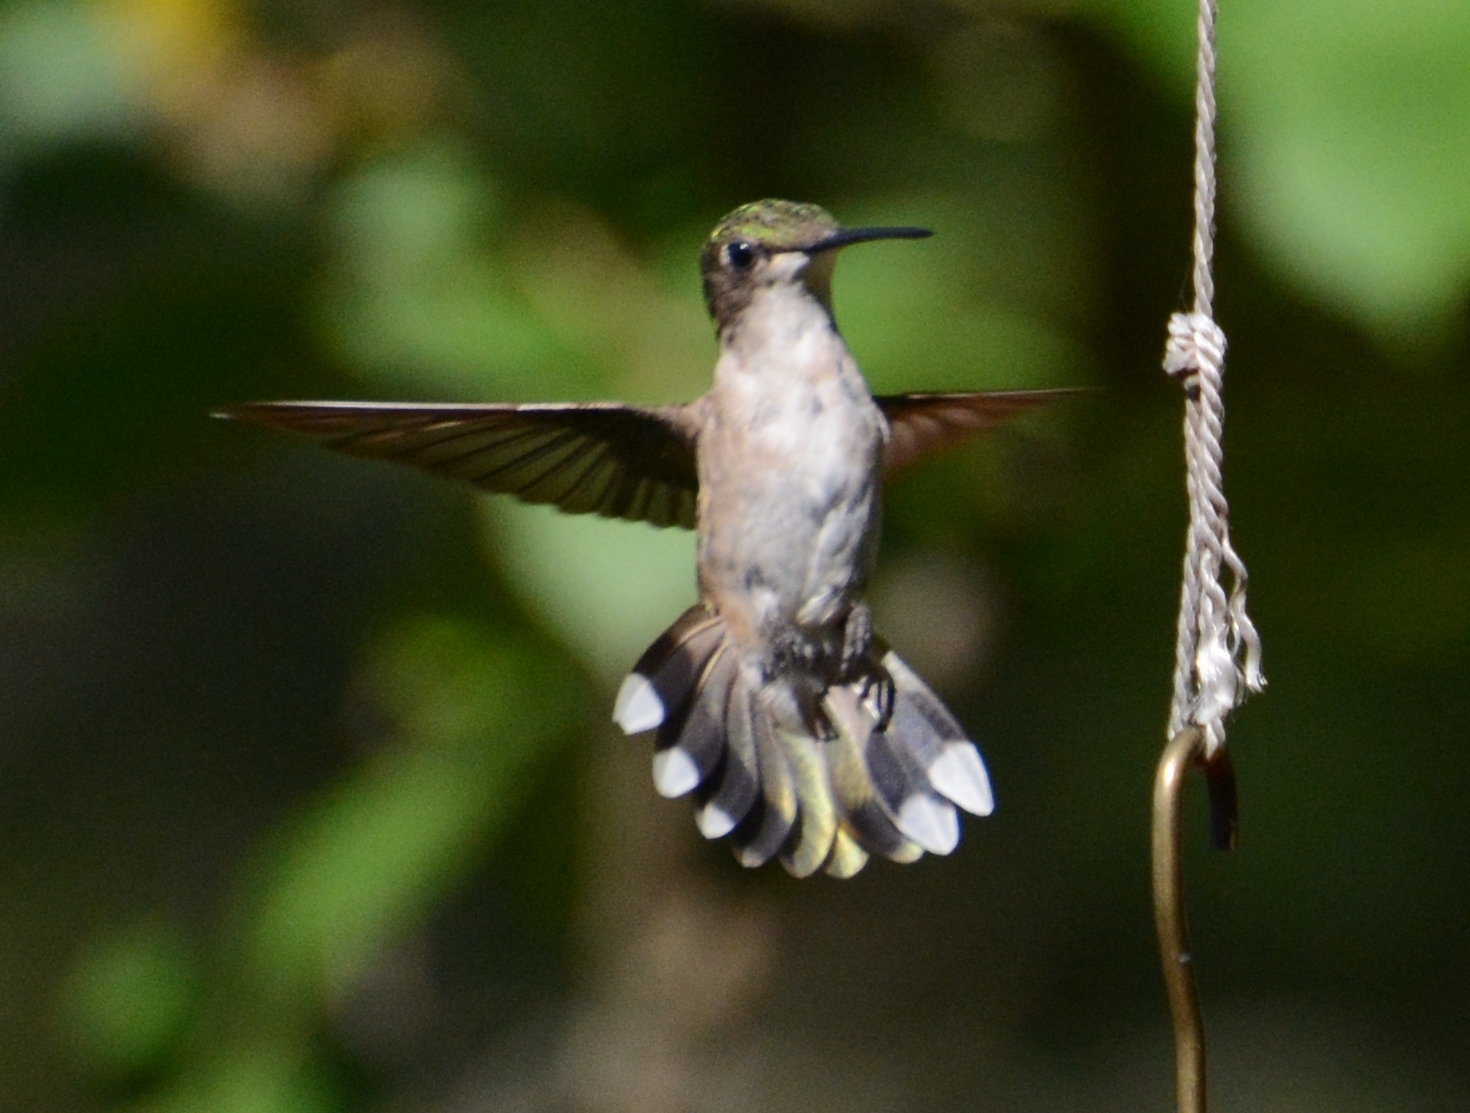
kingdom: Animalia
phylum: Chordata
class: Aves
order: Apodiformes
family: Trochilidae
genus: Archilochus
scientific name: Archilochus colubris
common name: Ruby-throated hummingbird
